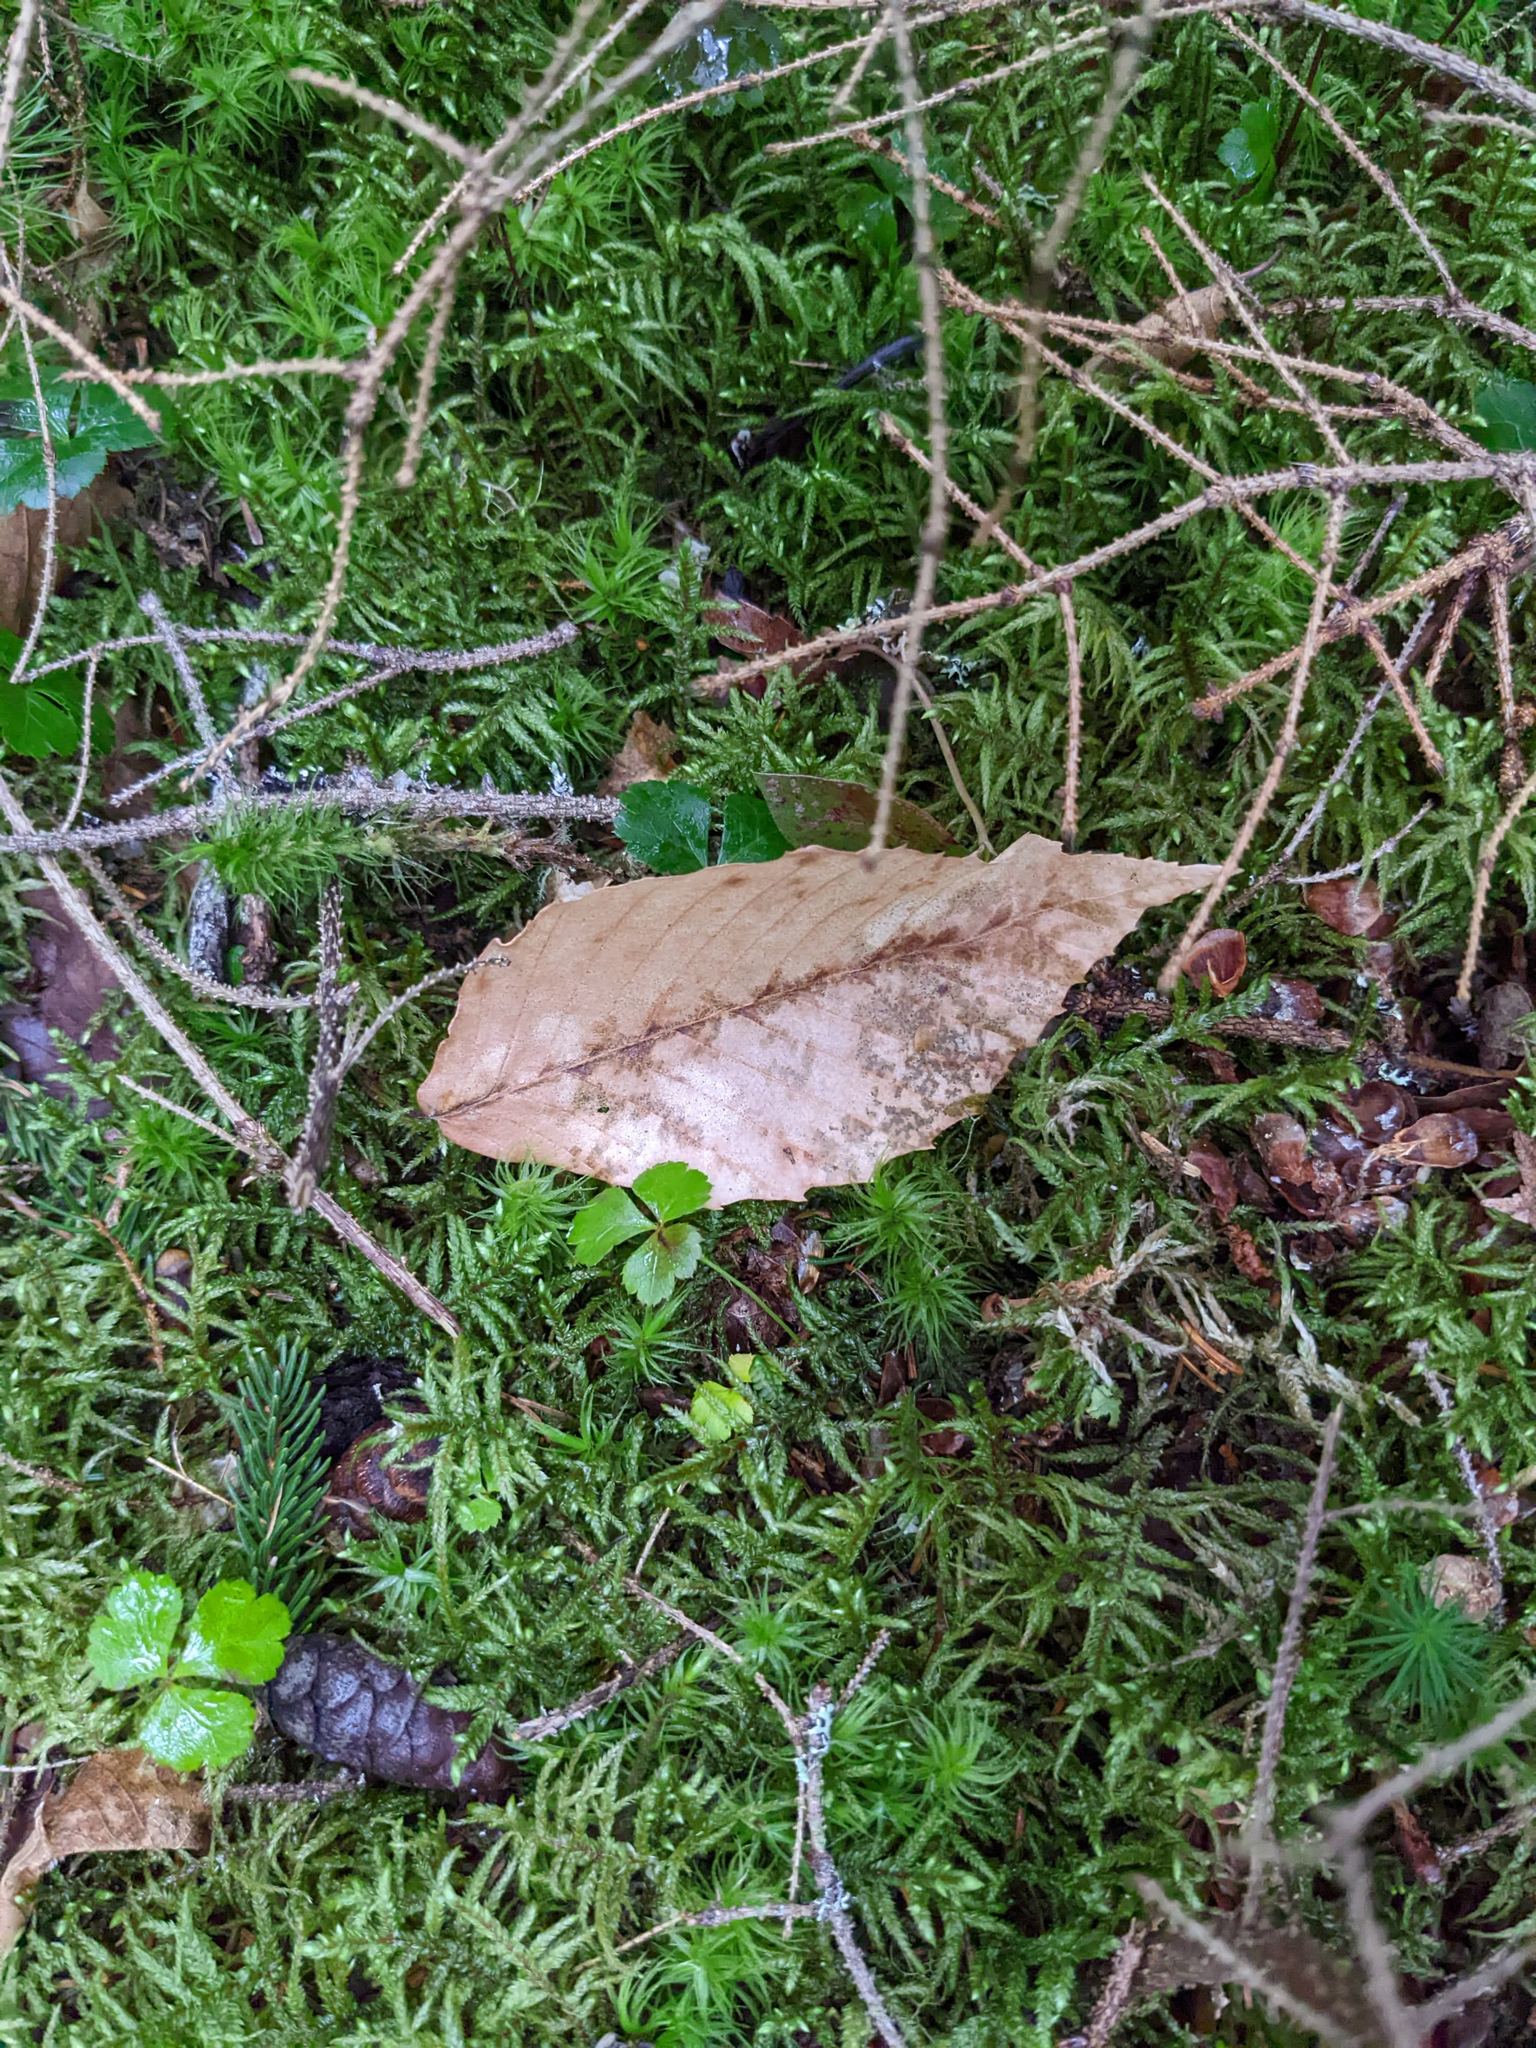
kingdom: Plantae
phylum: Tracheophyta
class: Magnoliopsida
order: Fagales
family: Fagaceae
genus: Fagus
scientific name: Fagus grandifolia
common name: American beech
